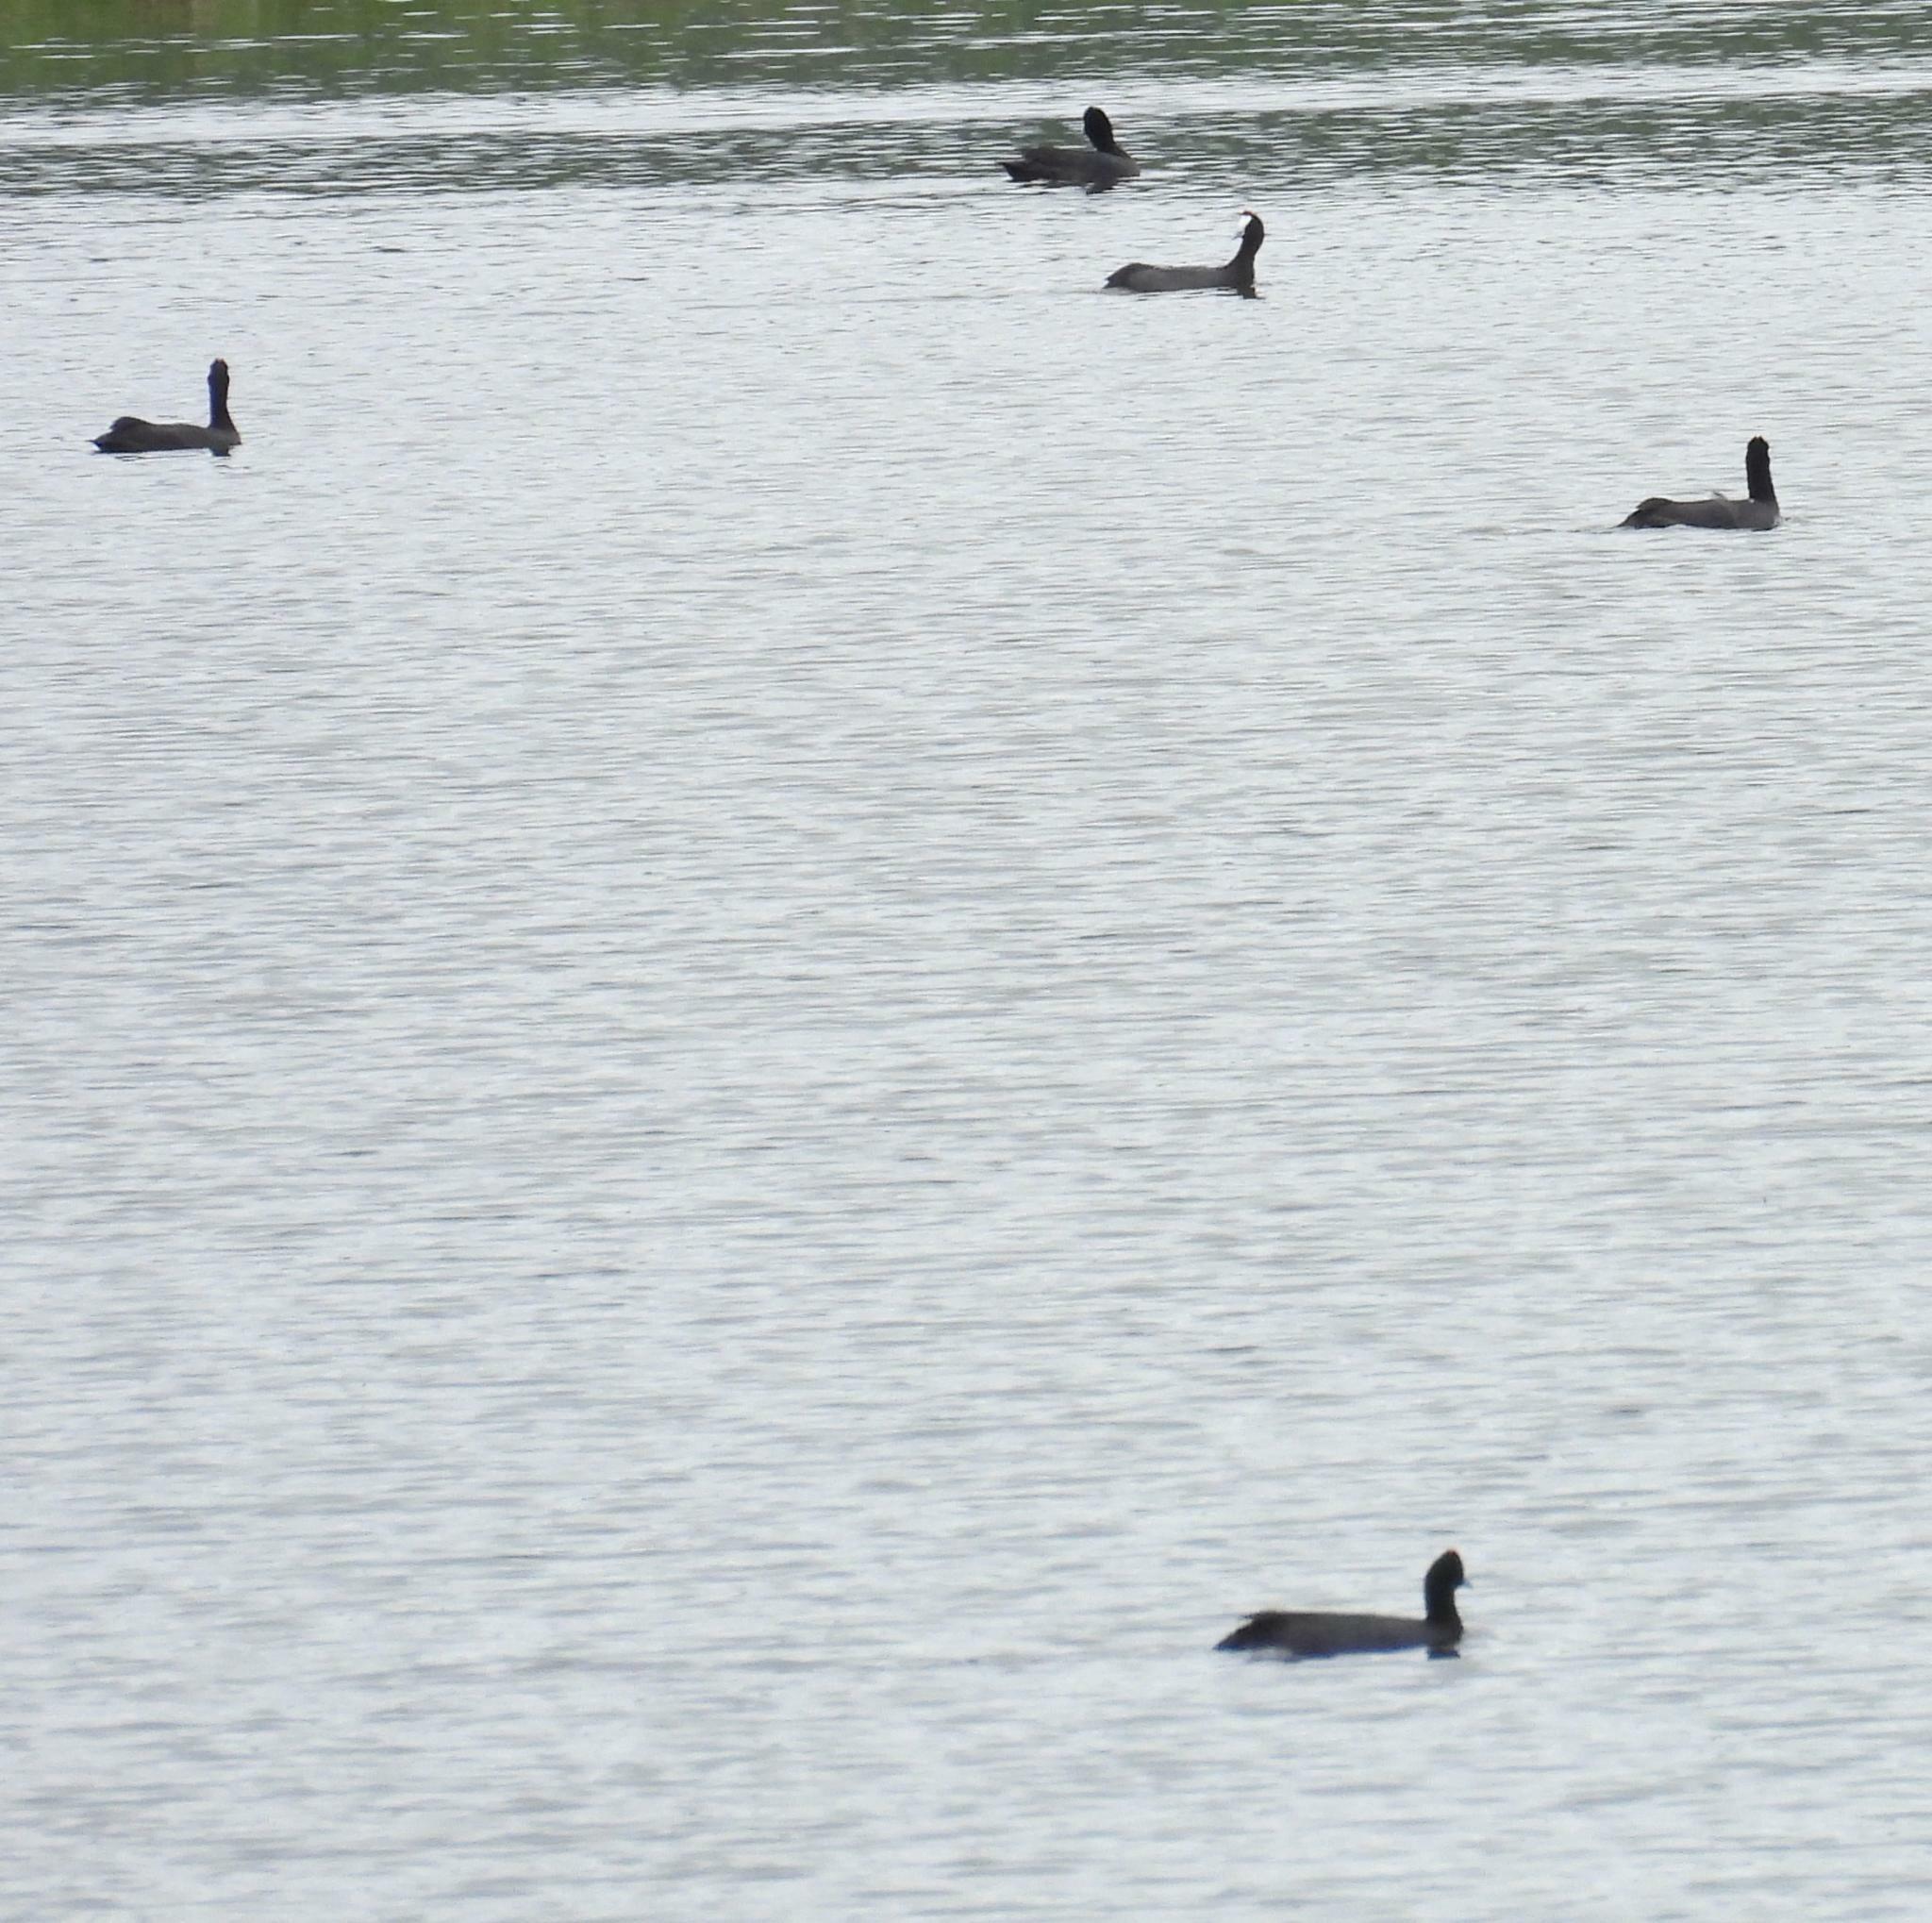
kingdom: Animalia
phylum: Chordata
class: Aves
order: Gruiformes
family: Rallidae
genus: Fulica
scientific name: Fulica cristata
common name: Red-knobbed coot
